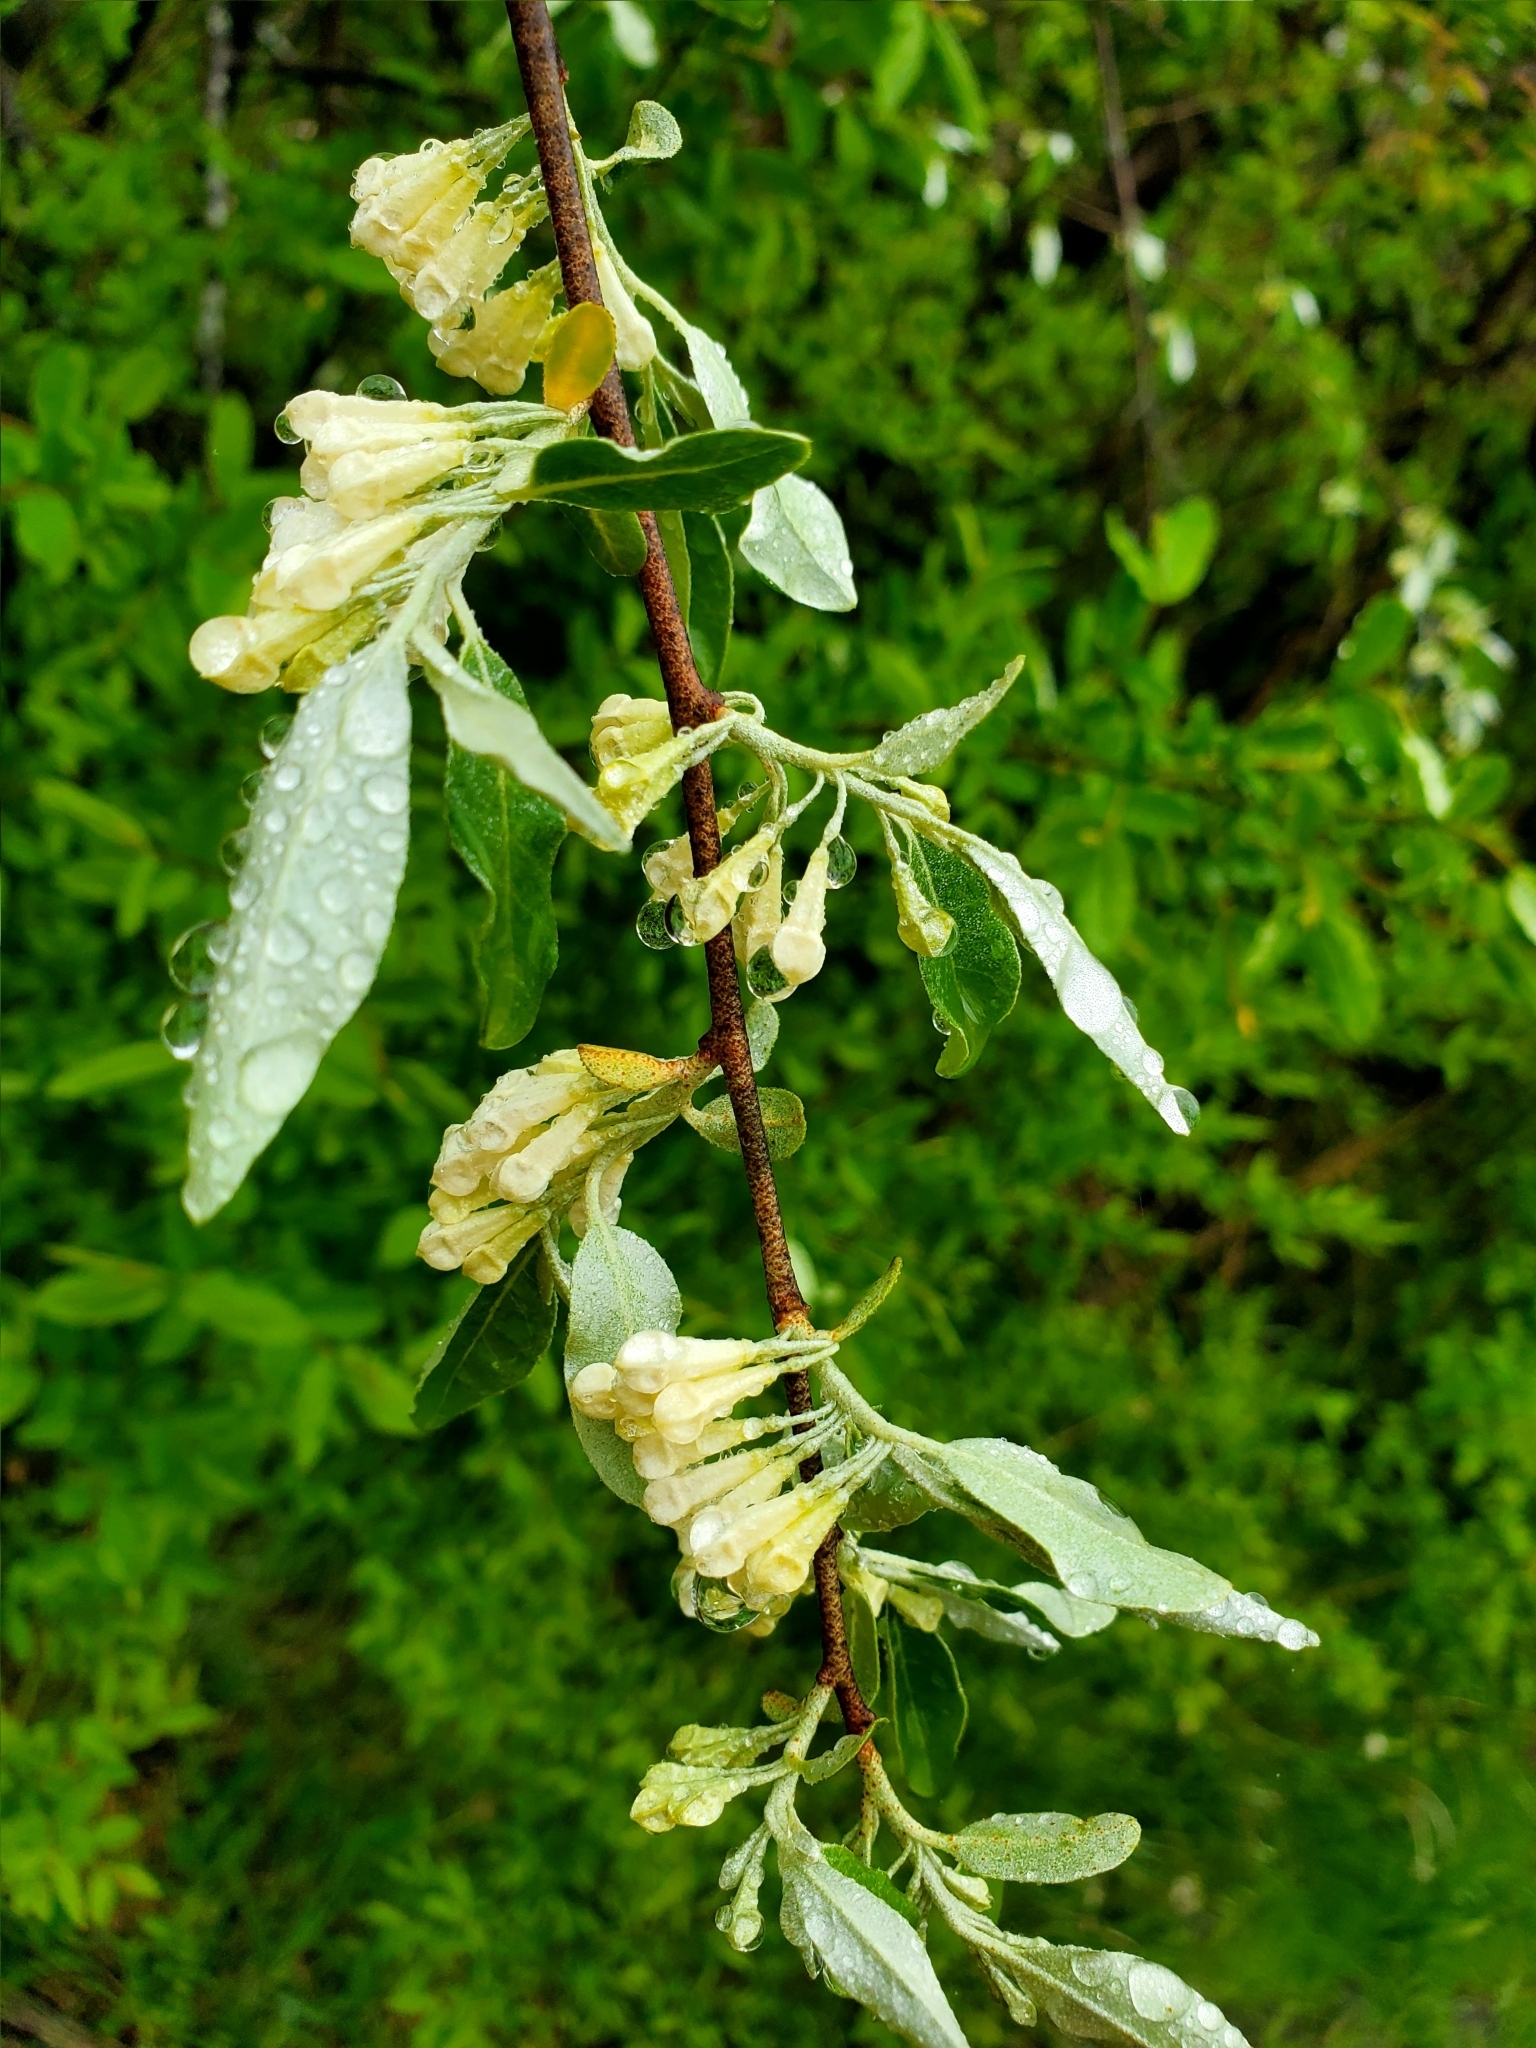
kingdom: Plantae
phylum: Tracheophyta
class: Magnoliopsida
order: Rosales
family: Elaeagnaceae
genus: Elaeagnus
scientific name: Elaeagnus umbellata
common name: Autumn olive
